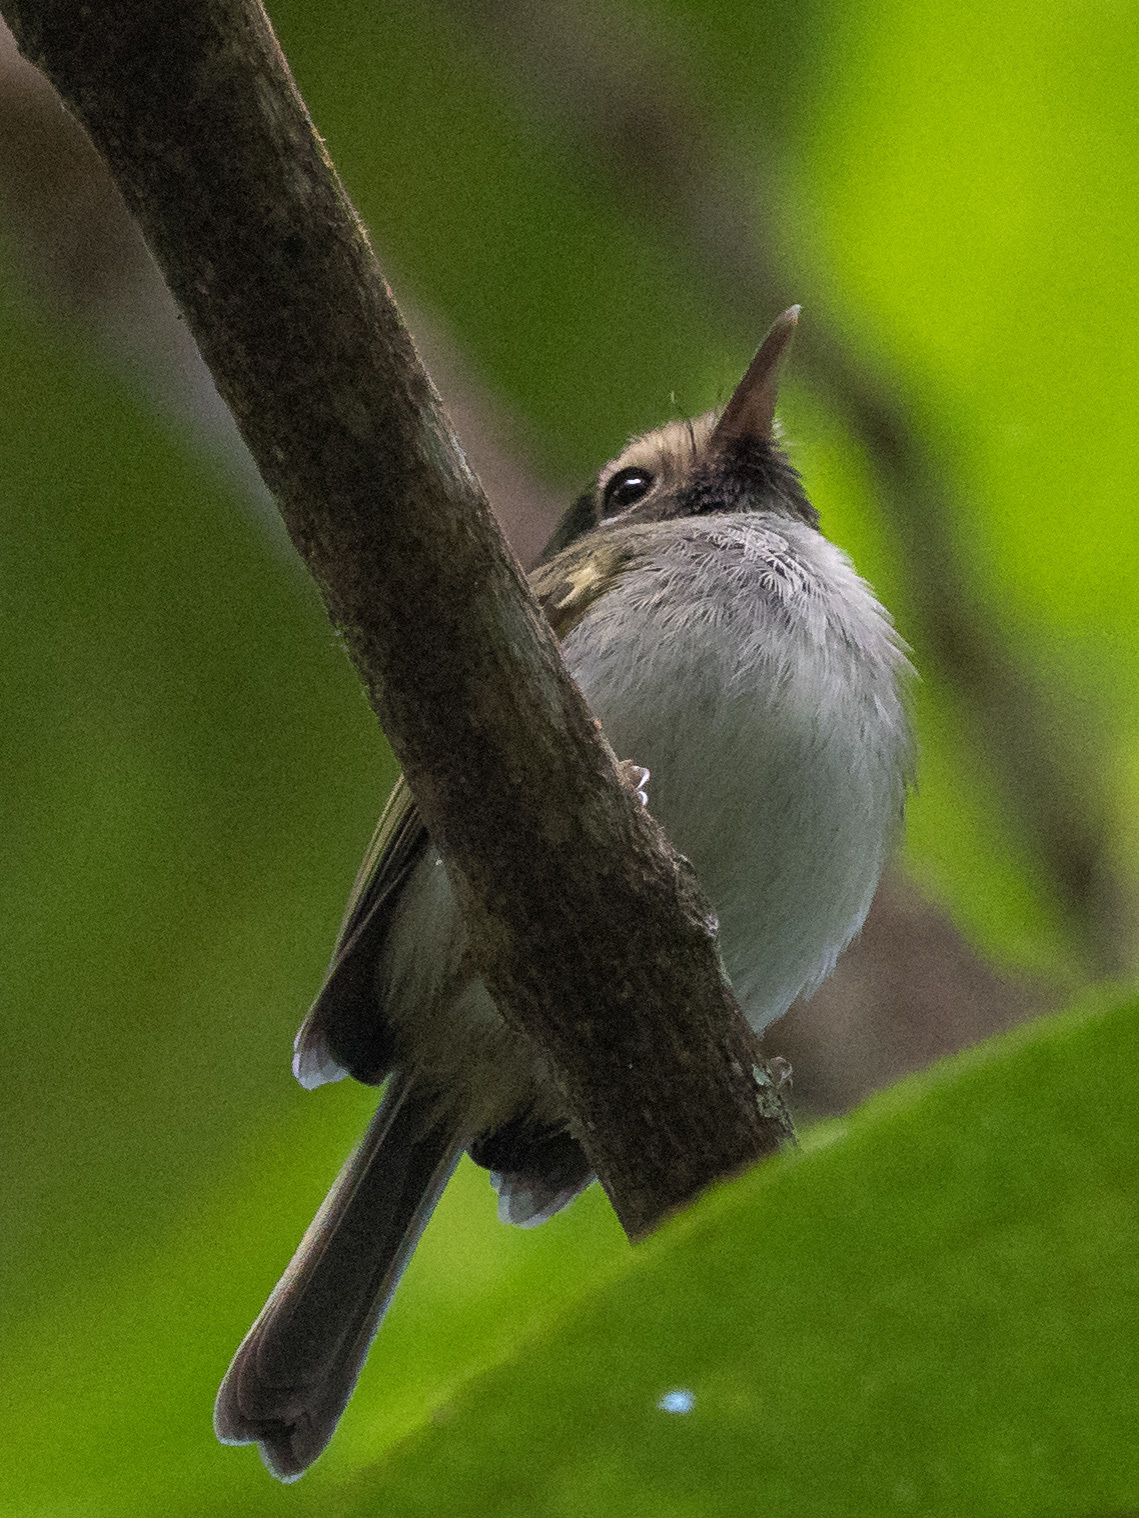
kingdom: Animalia
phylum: Chordata
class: Aves
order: Passeriformes
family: Tyrannidae
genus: Hemitriccus
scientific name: Hemitriccus granadensis
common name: Black-throated tody-tyrant
